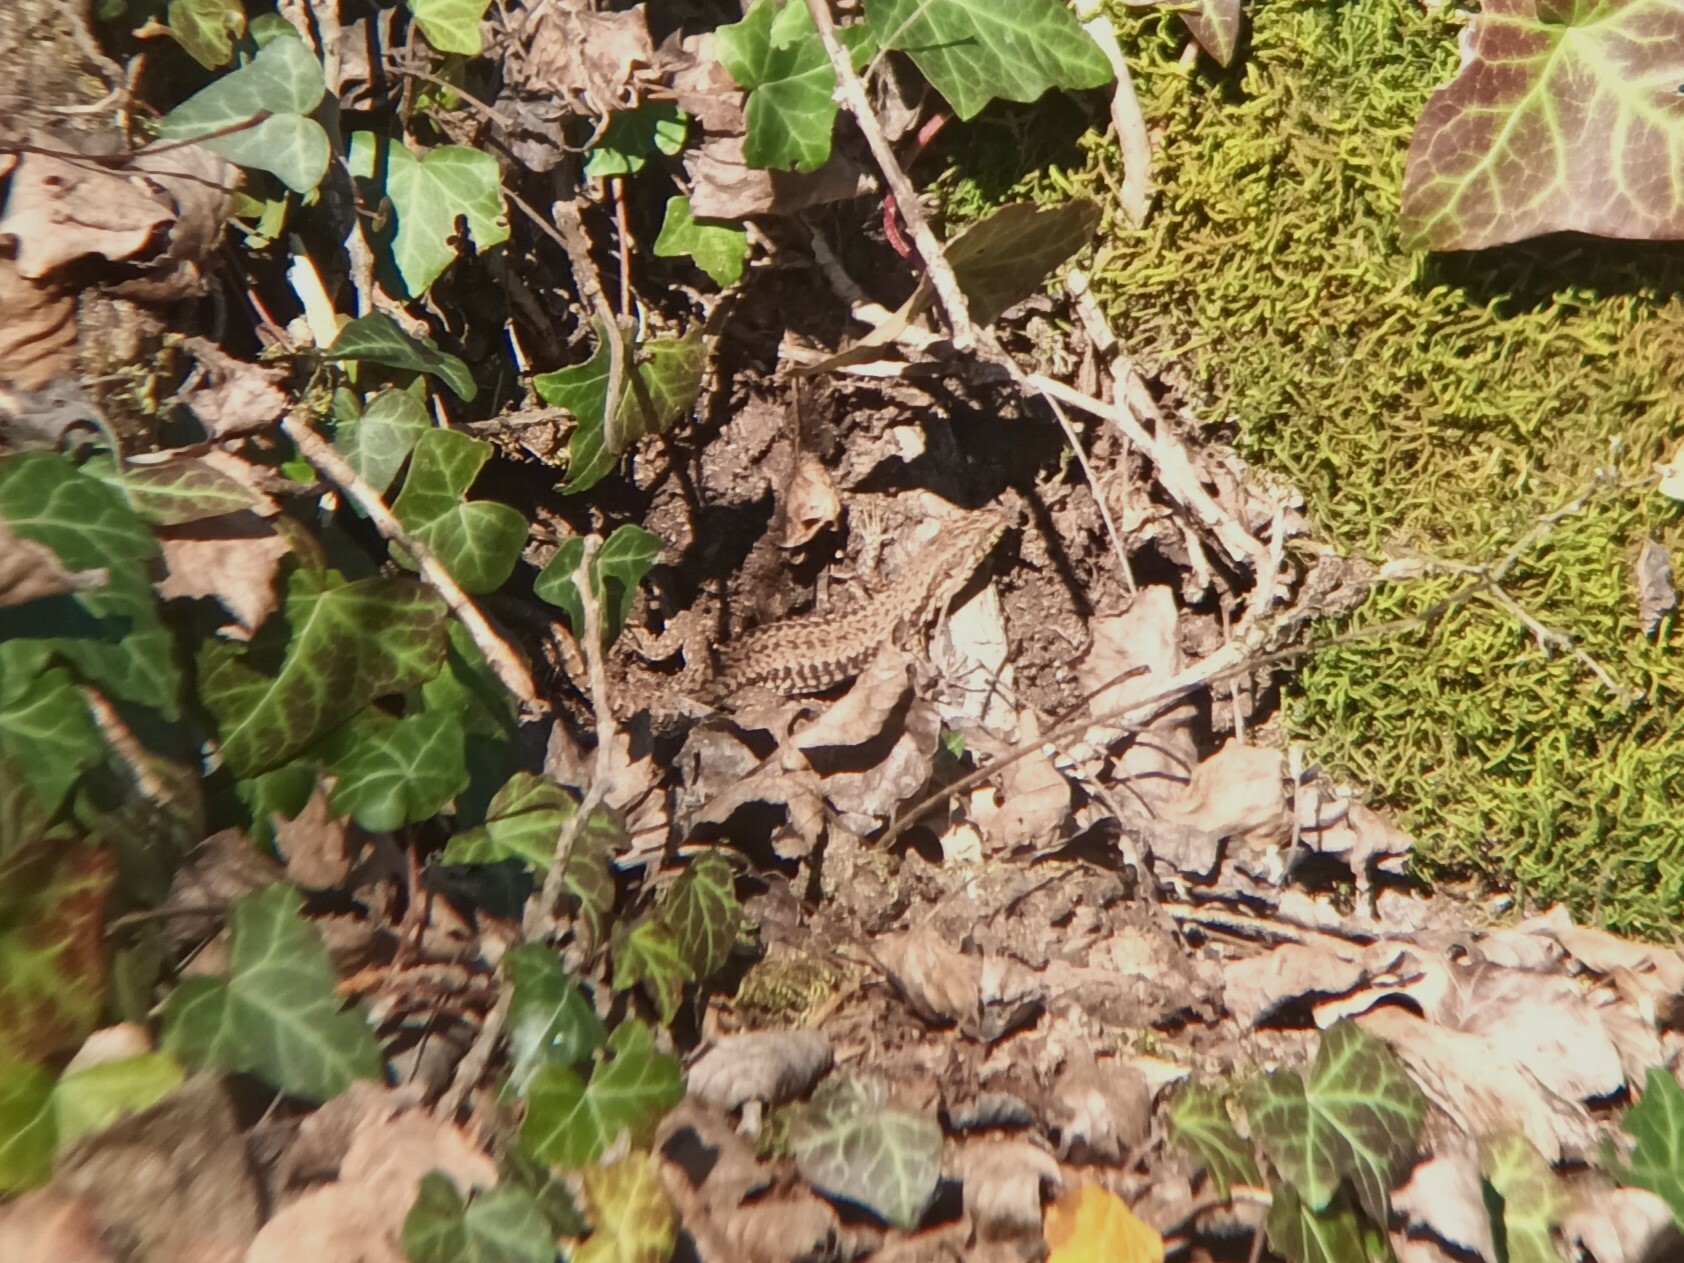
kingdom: Animalia
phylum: Chordata
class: Squamata
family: Lacertidae
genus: Podarcis
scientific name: Podarcis muralis
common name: Common wall lizard
